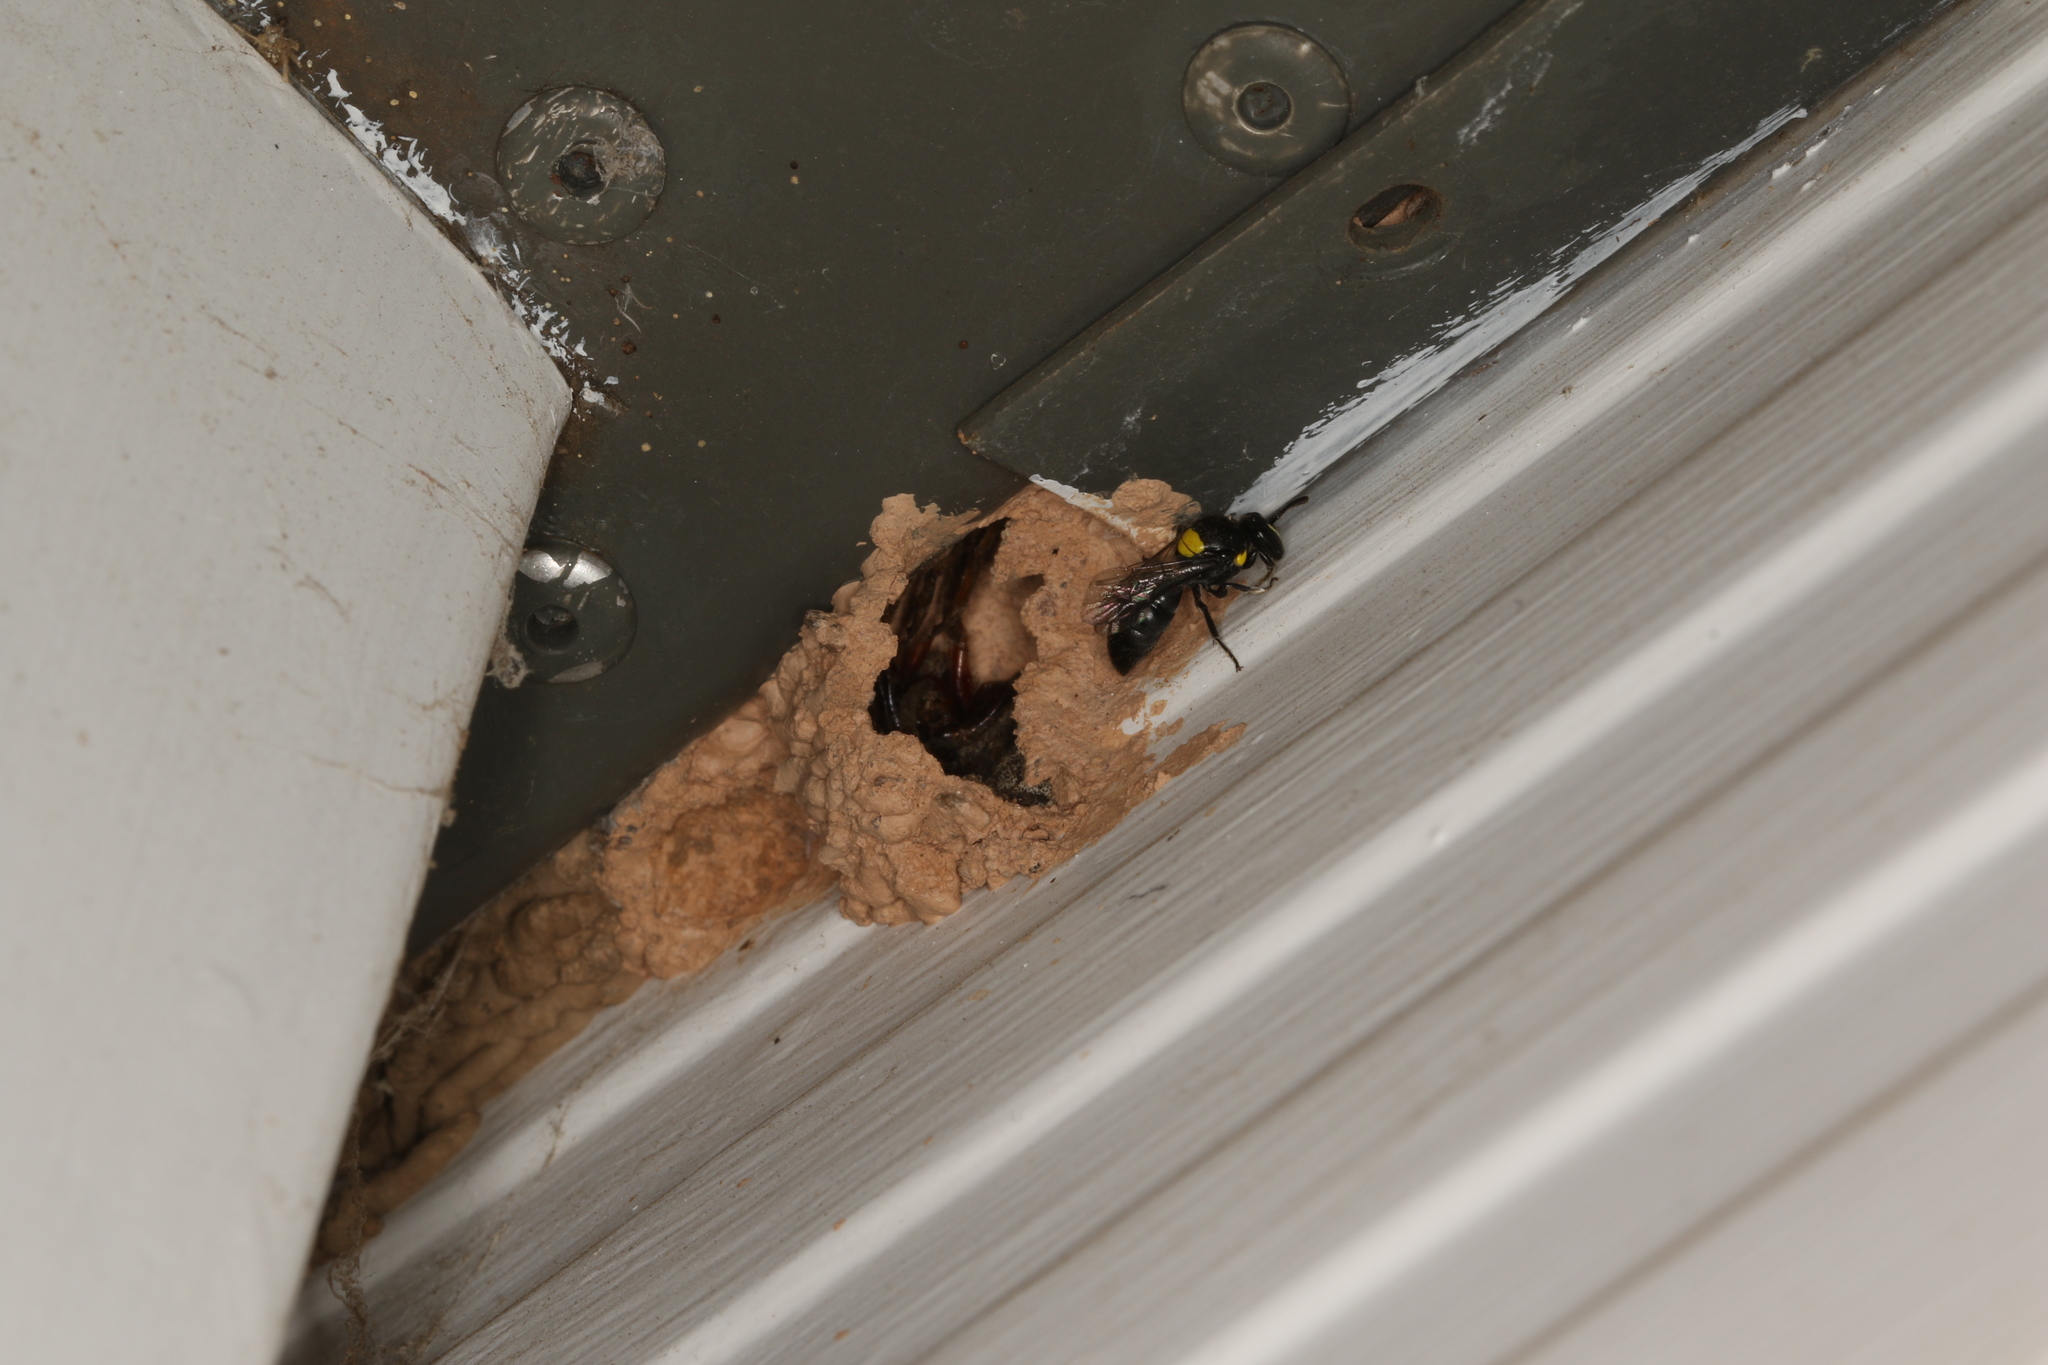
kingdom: Animalia
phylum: Arthropoda
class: Insecta
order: Hymenoptera
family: Colletidae
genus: Hylaeus
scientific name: Hylaeus nubilosus
